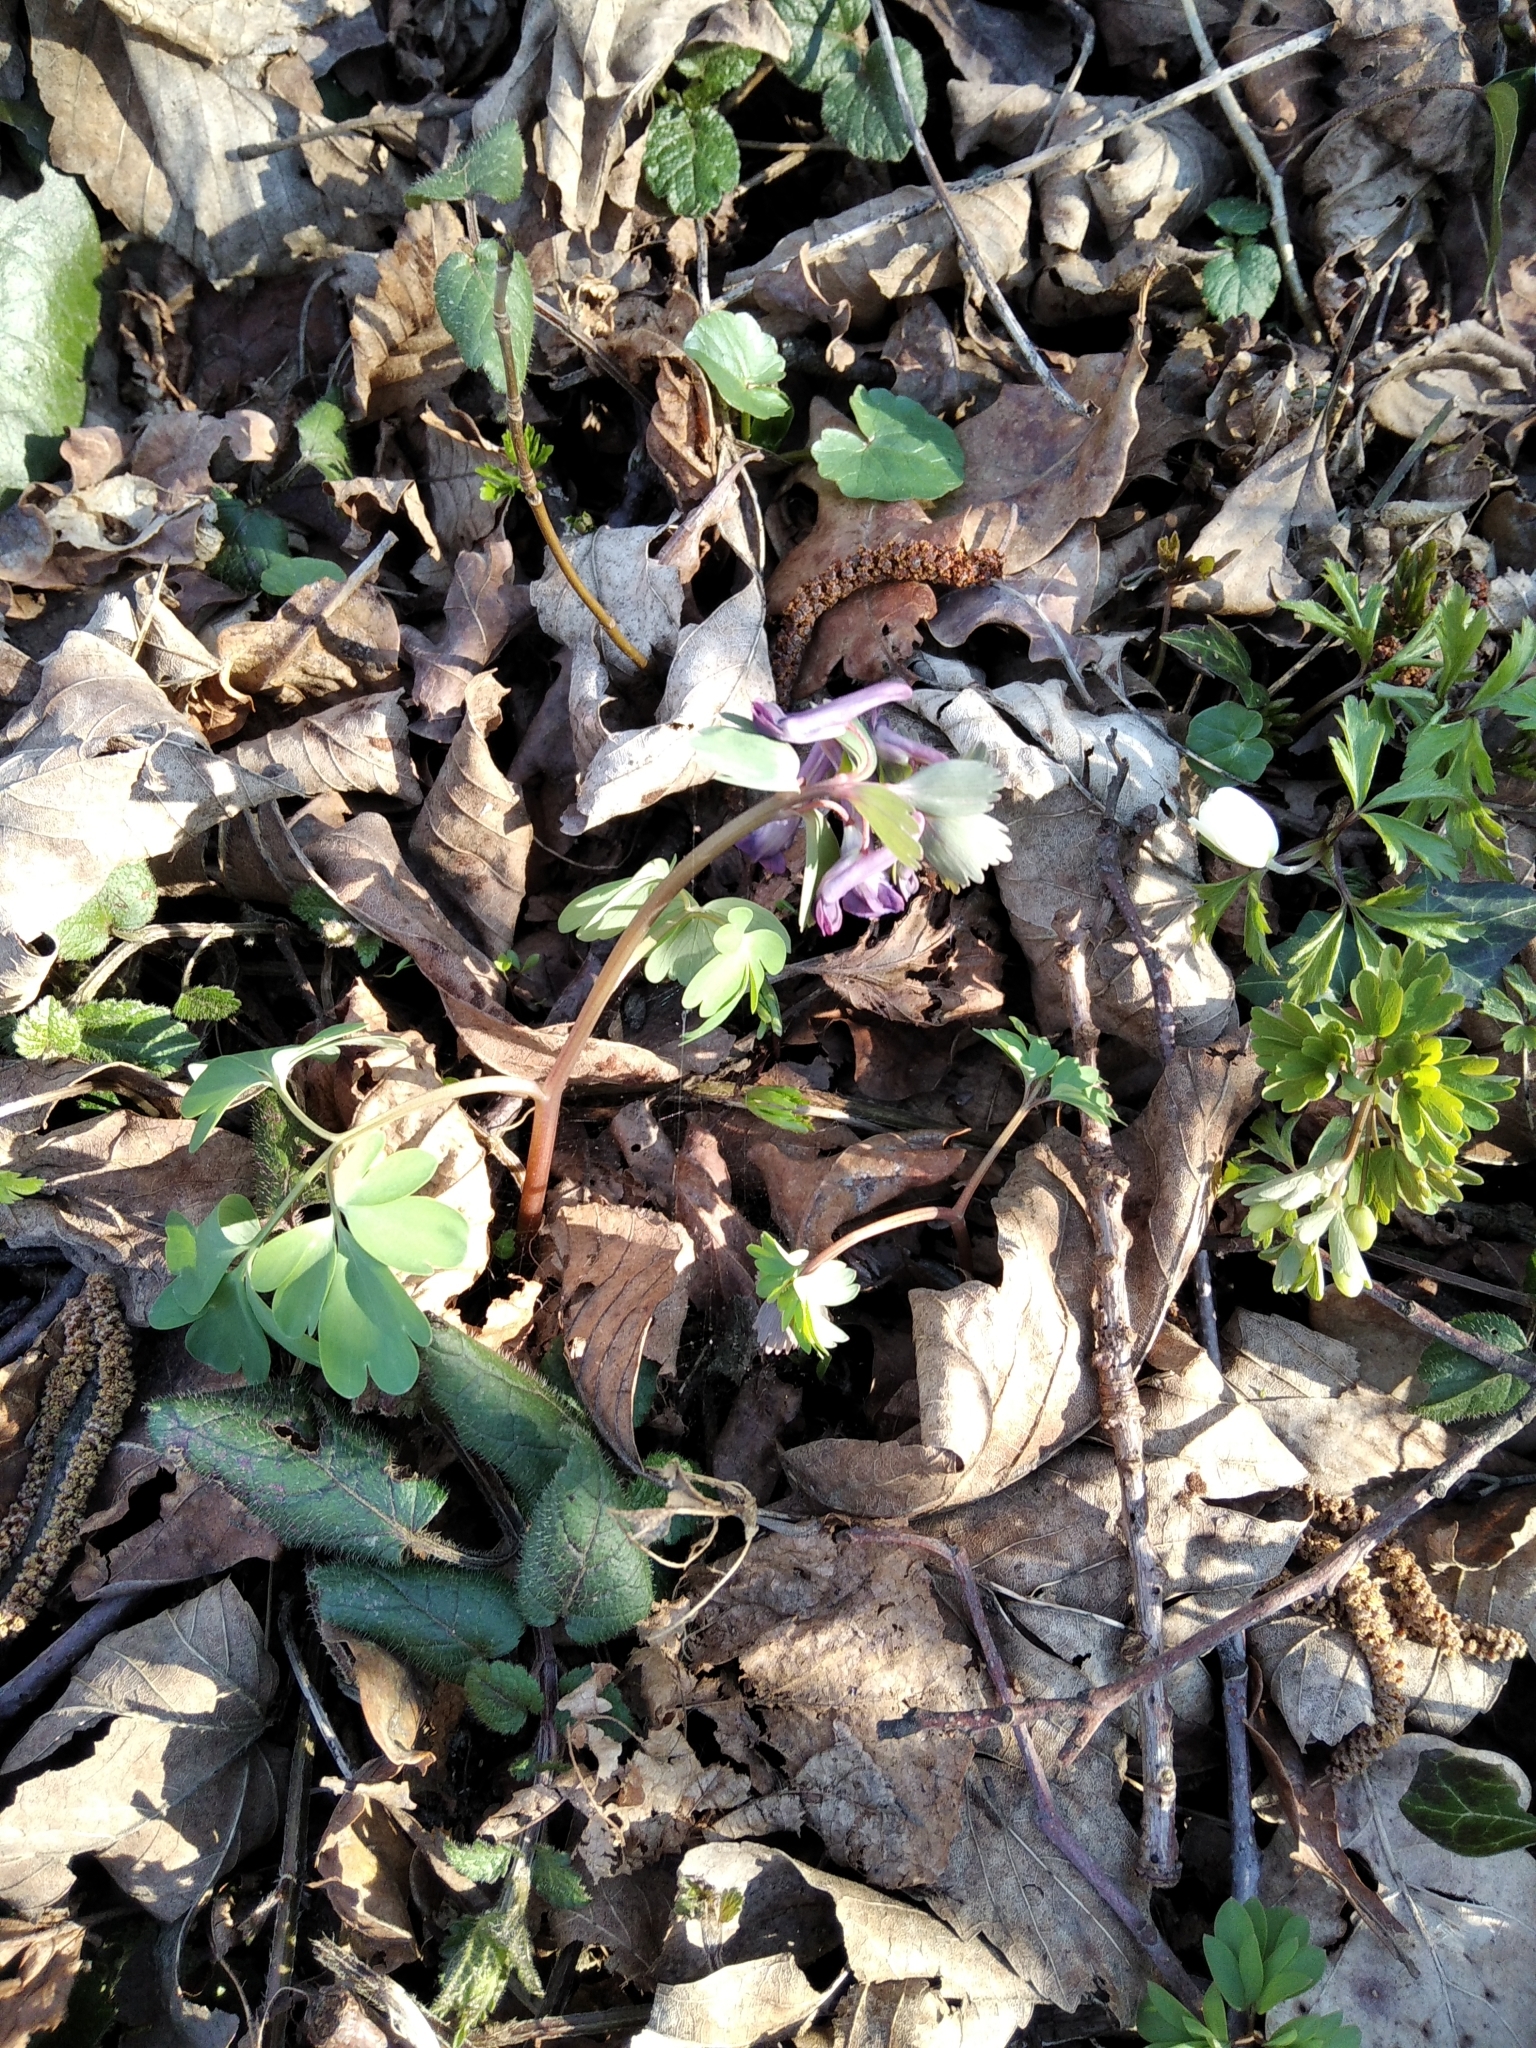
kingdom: Plantae
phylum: Tracheophyta
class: Magnoliopsida
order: Ranunculales
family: Papaveraceae
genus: Corydalis
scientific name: Corydalis solida
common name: Bird-in-a-bush
